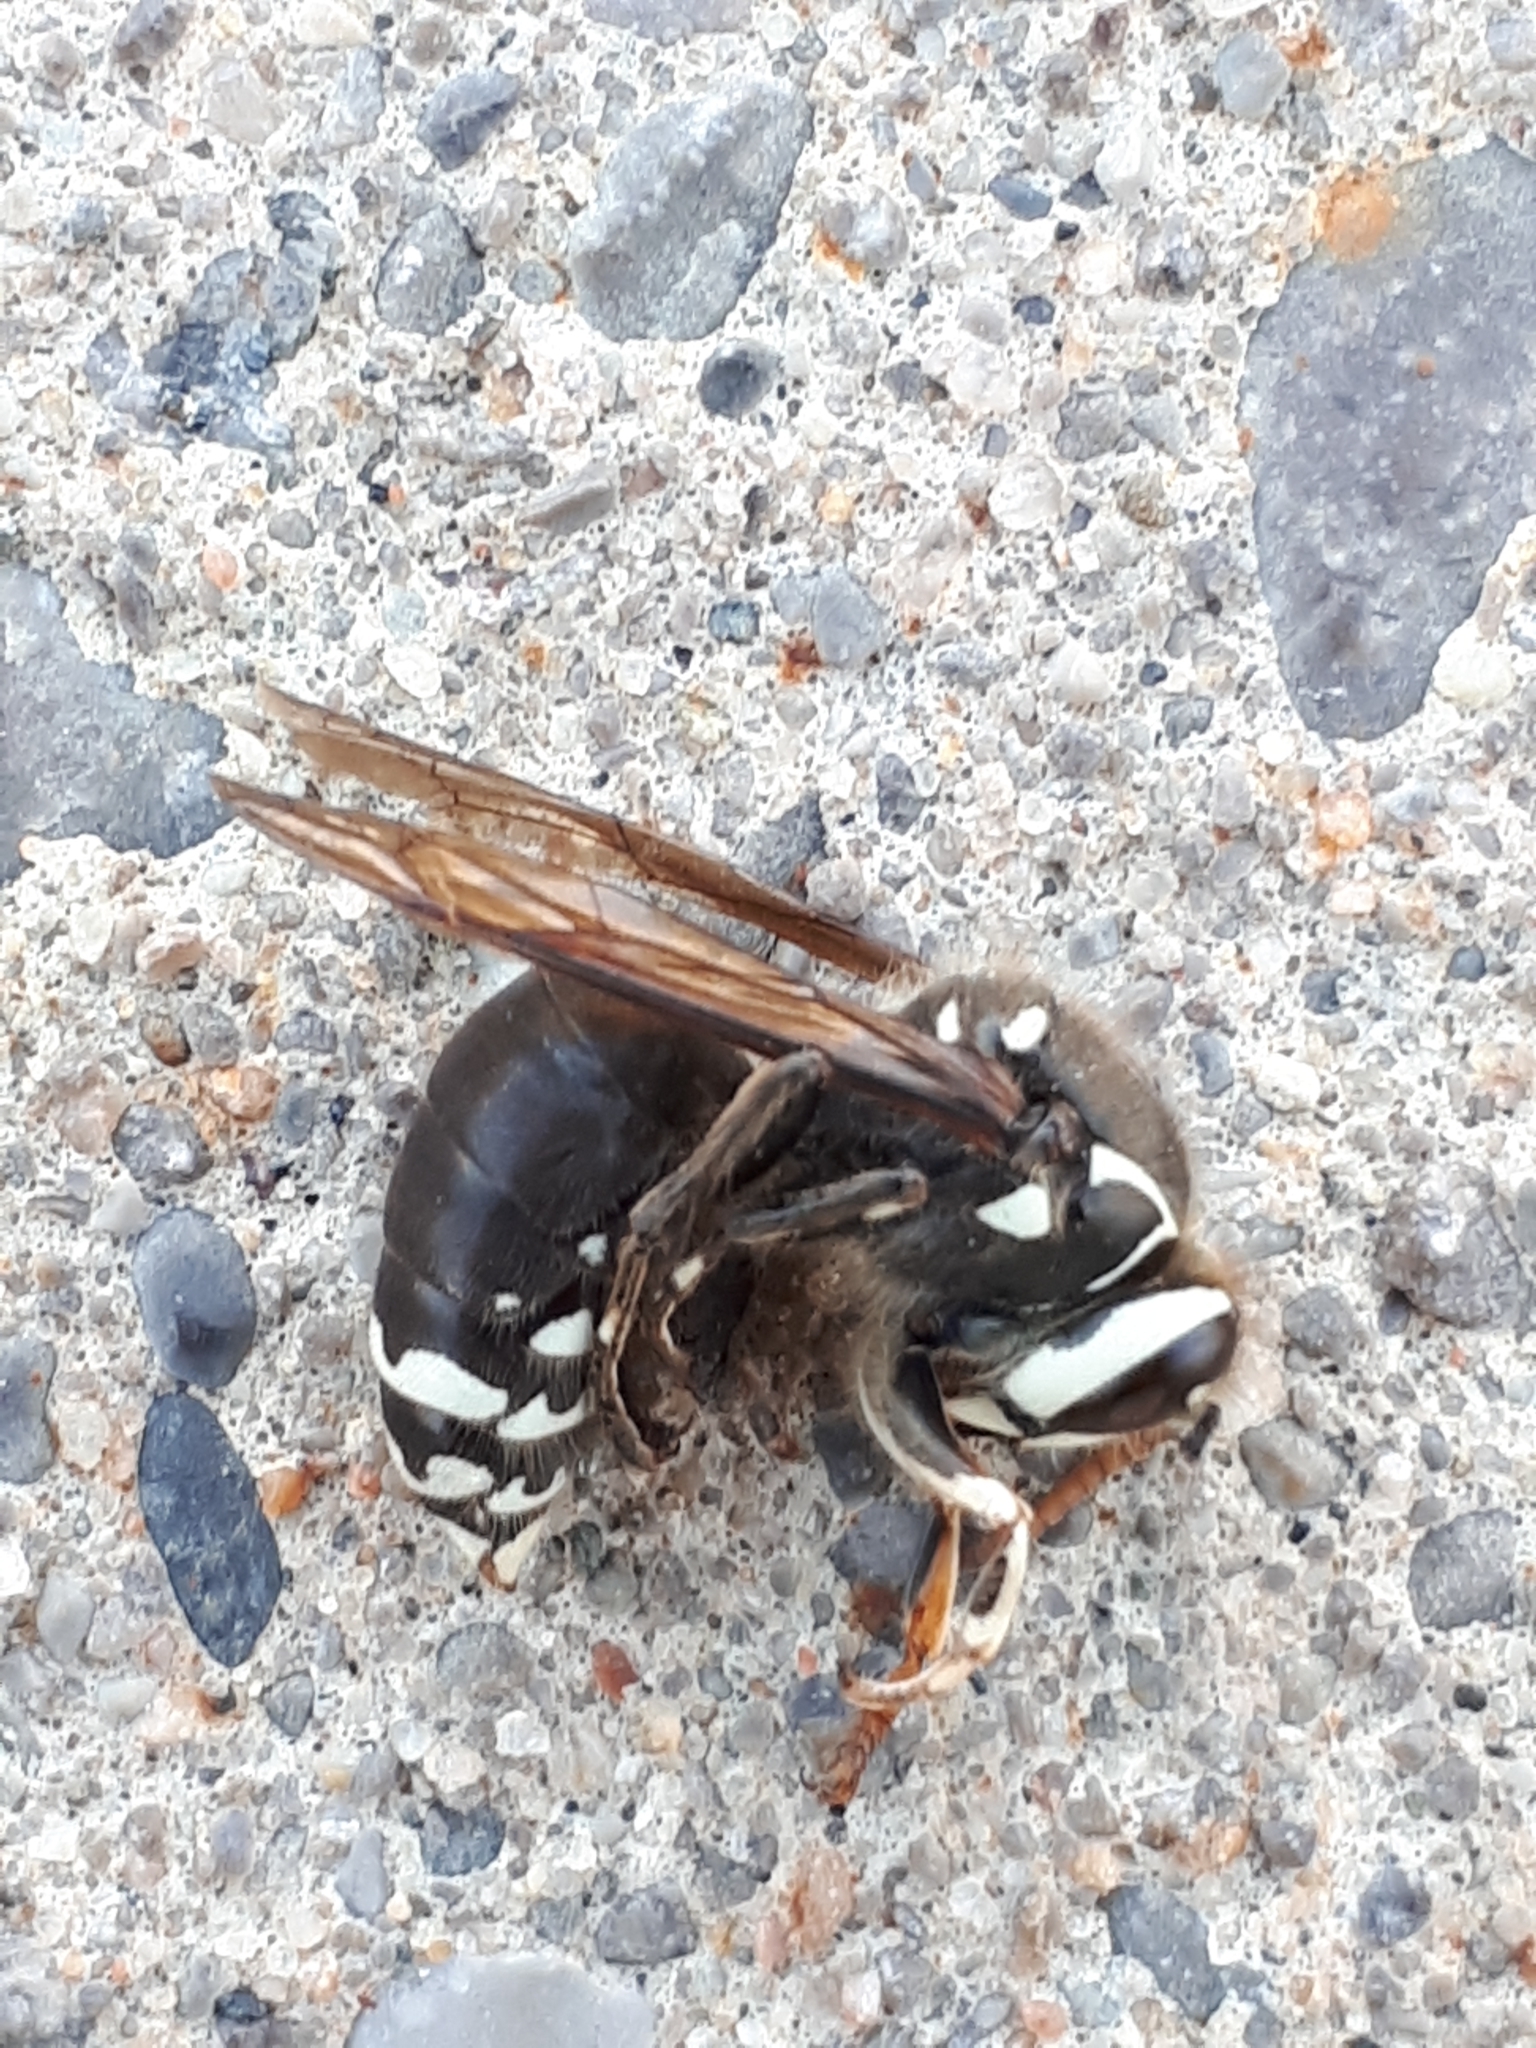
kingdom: Animalia
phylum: Arthropoda
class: Insecta
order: Hymenoptera
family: Vespidae
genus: Dolichovespula
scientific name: Dolichovespula maculata
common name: Bald-faced hornet
